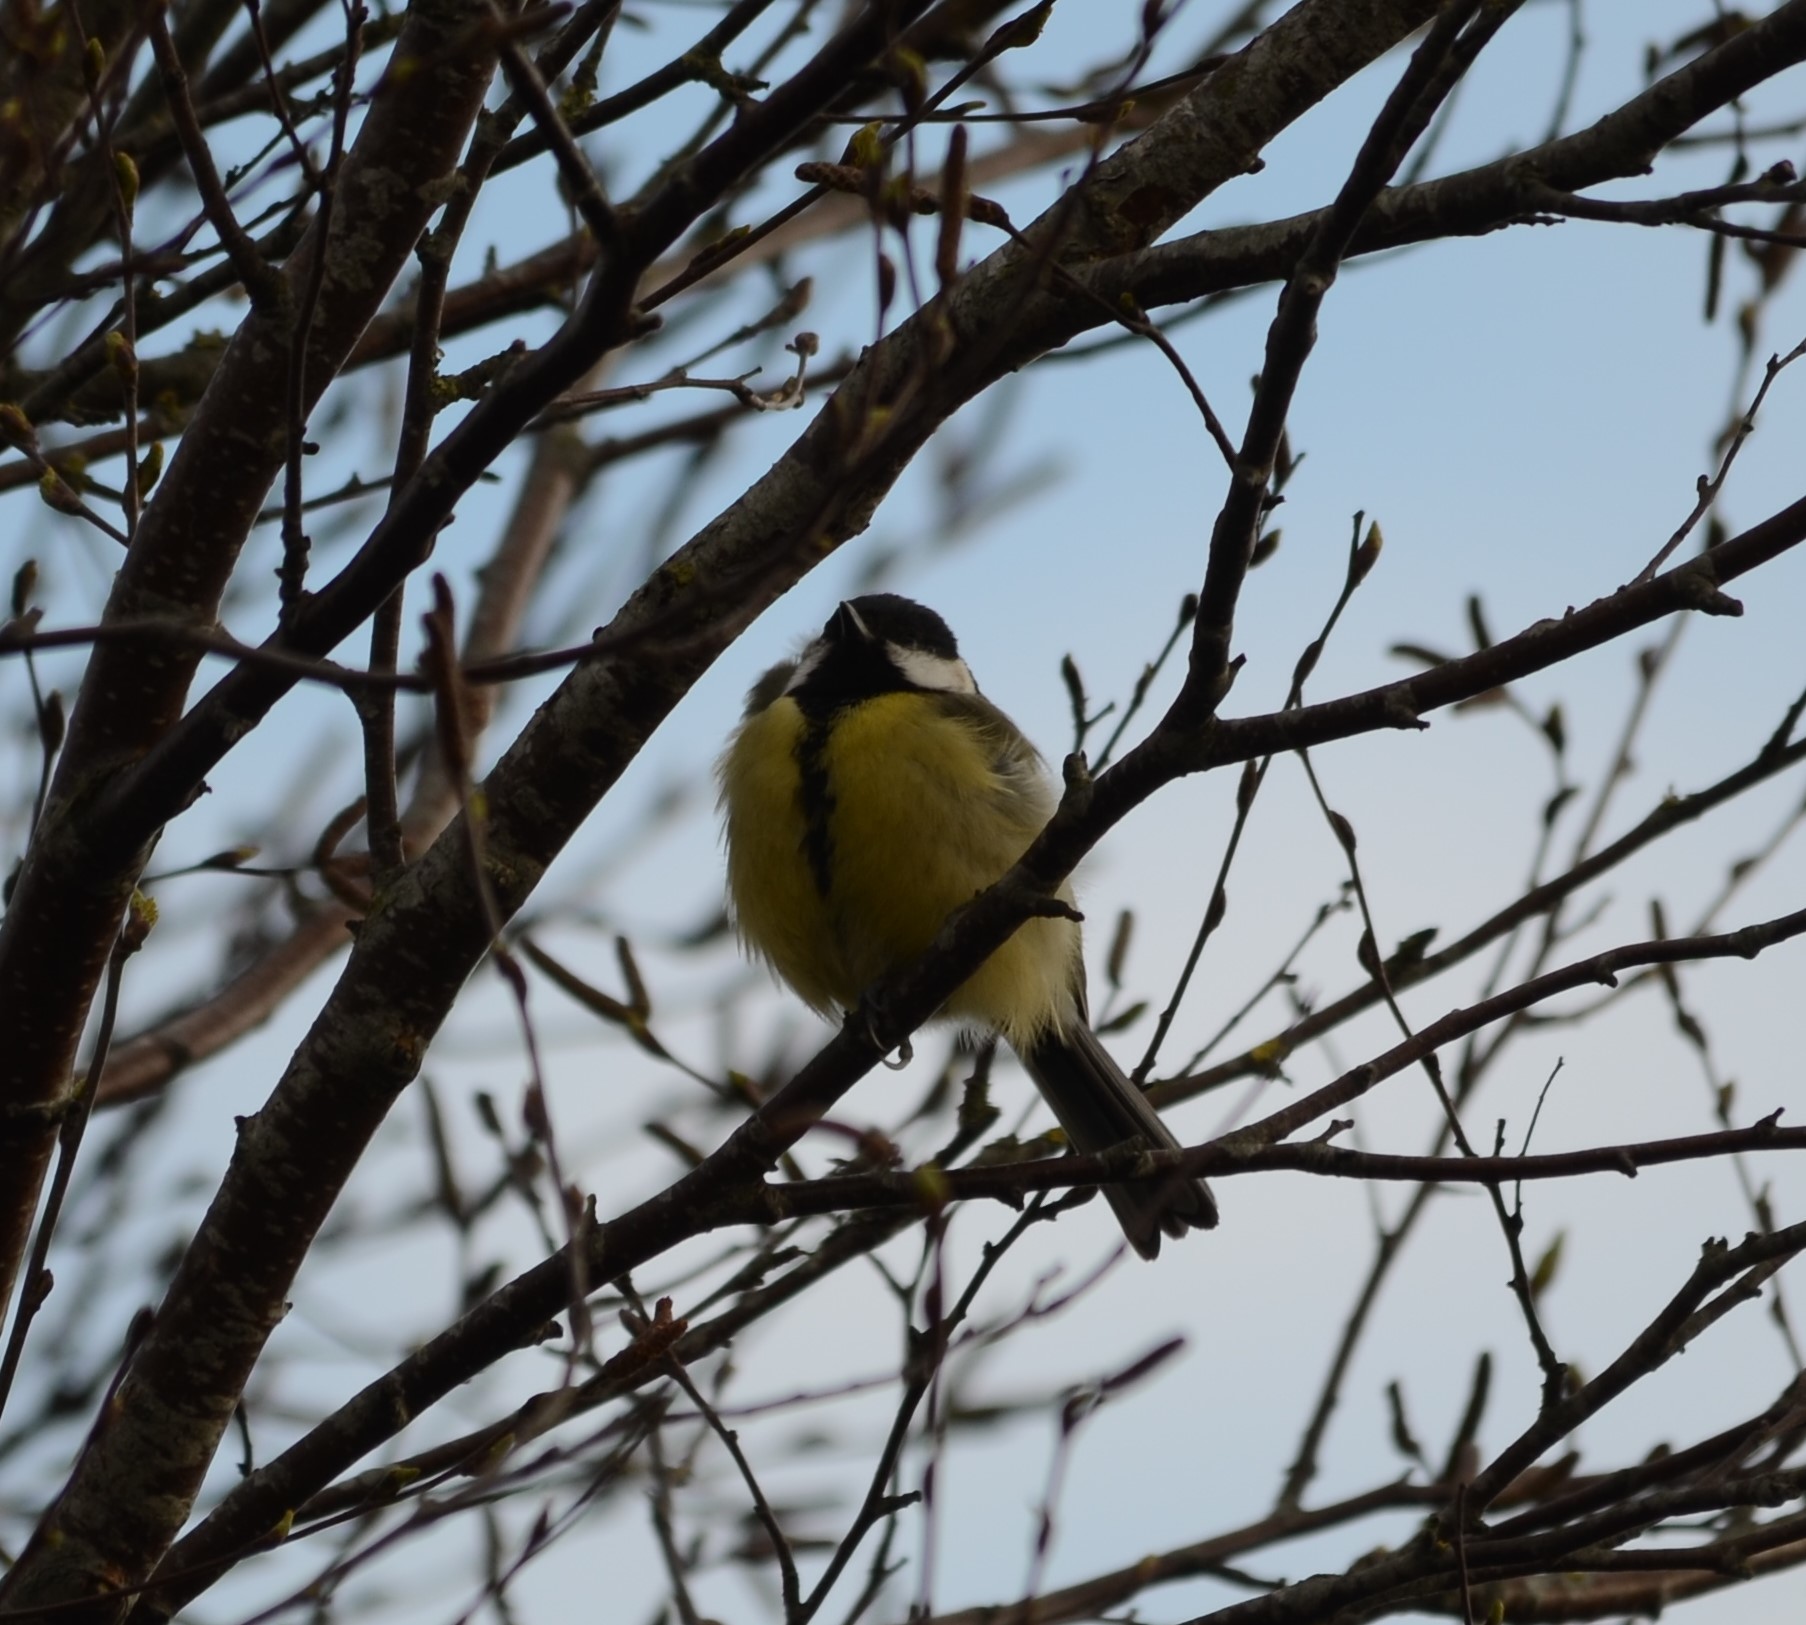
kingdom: Animalia
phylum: Chordata
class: Aves
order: Passeriformes
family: Paridae
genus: Parus
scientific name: Parus major
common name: Great tit
